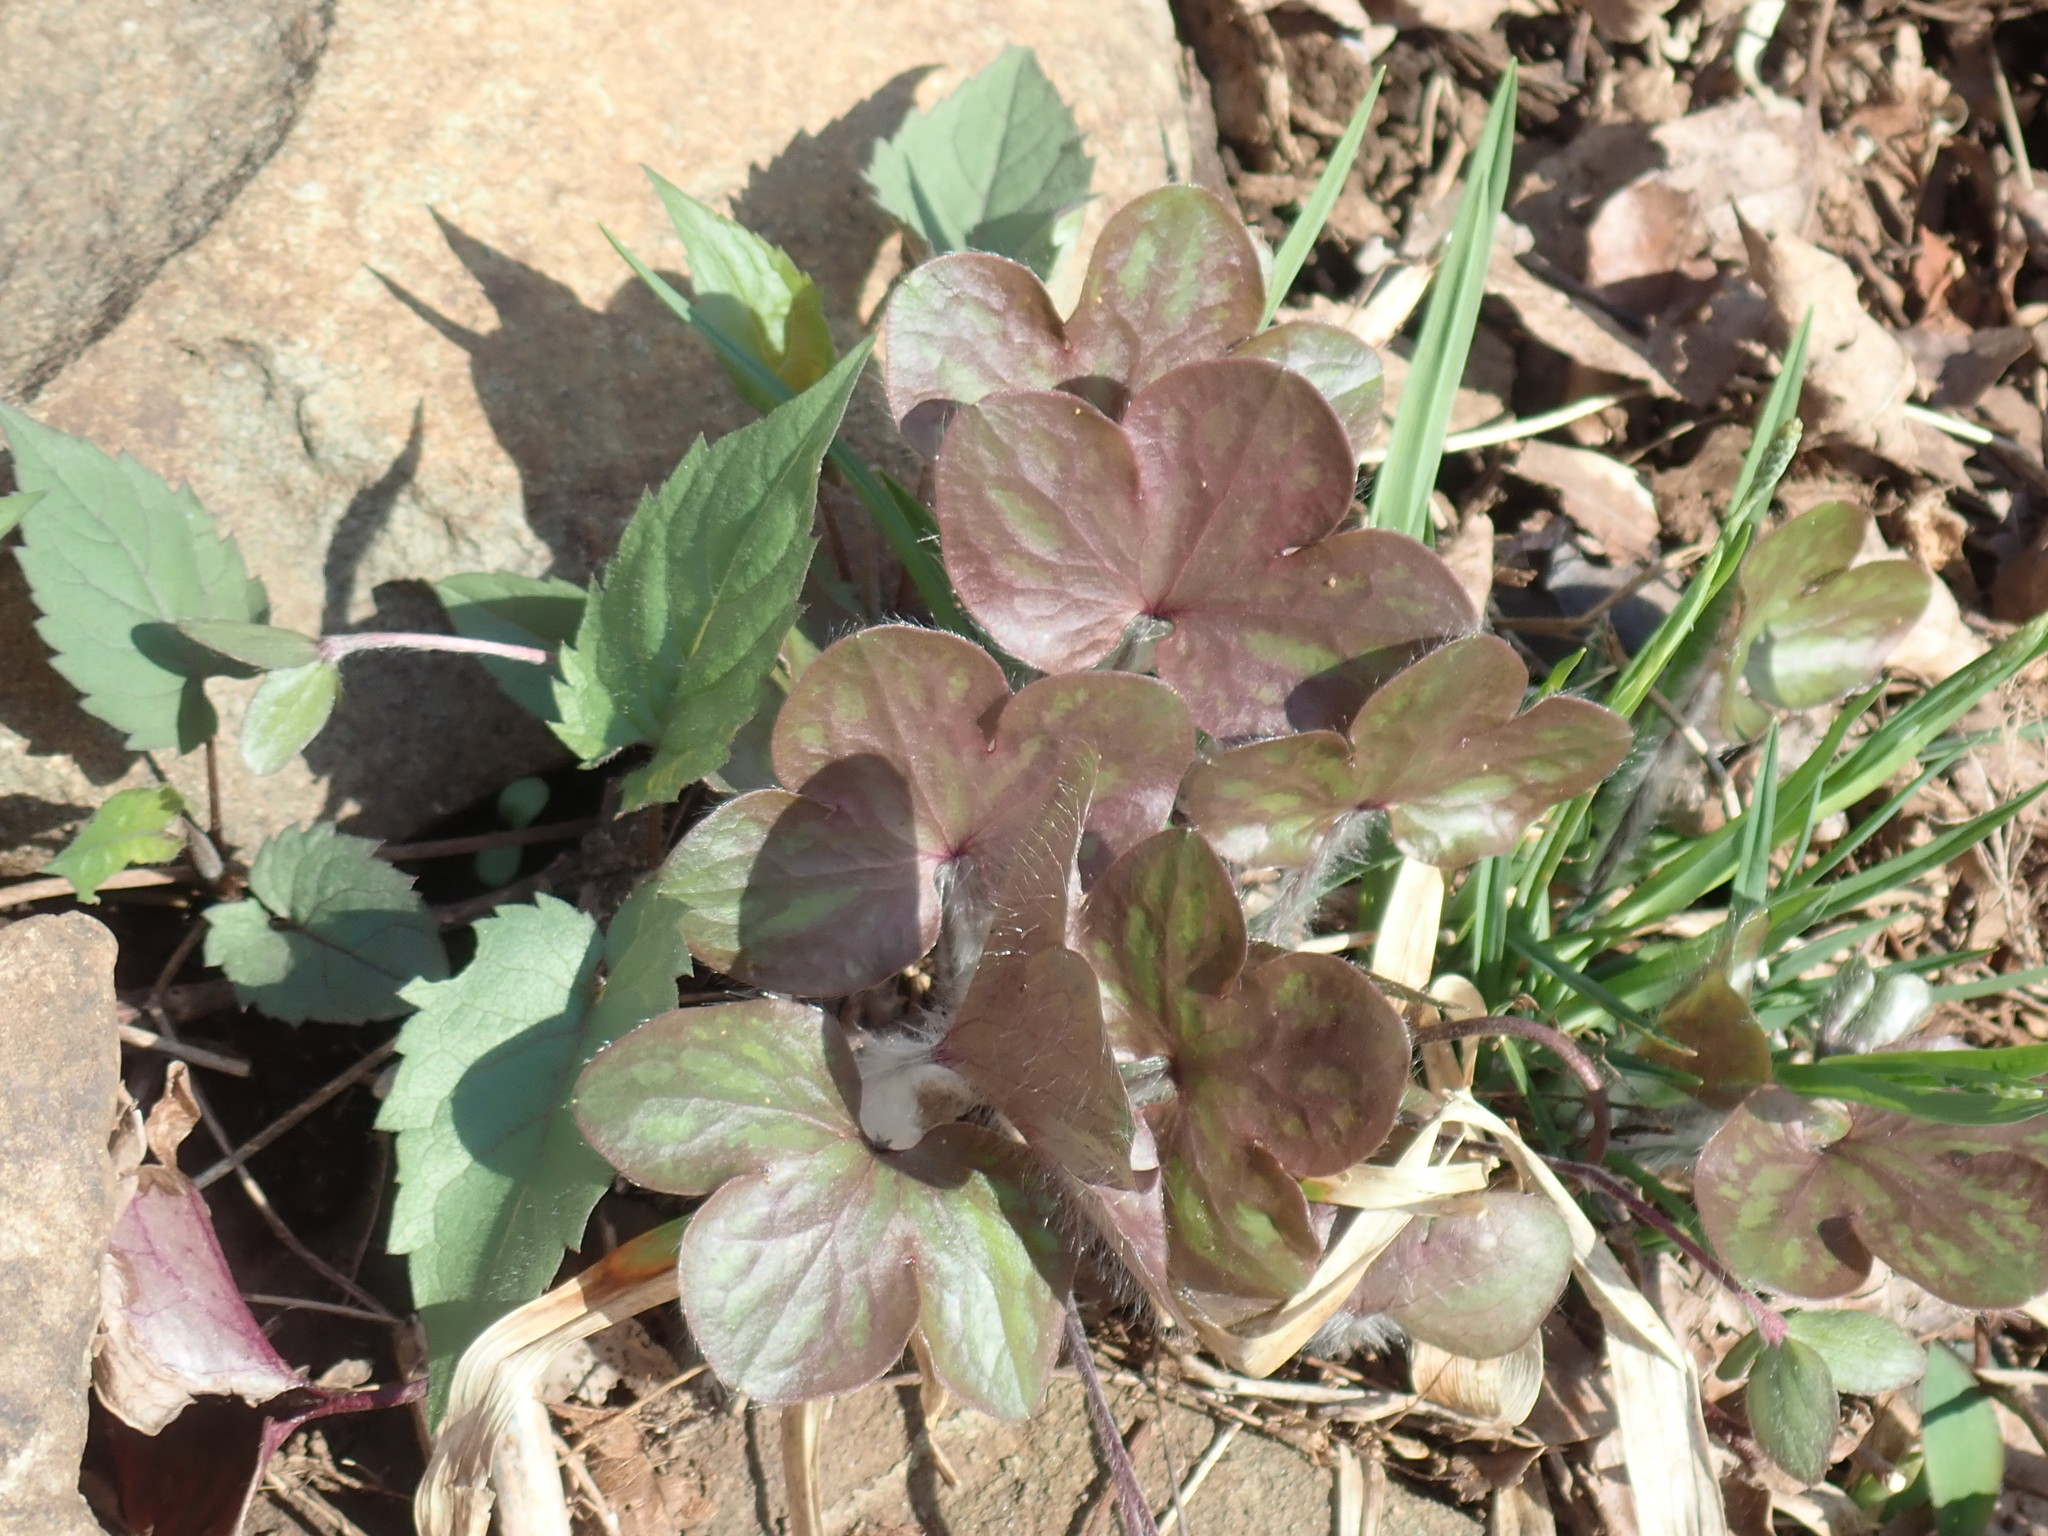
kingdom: Plantae
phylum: Tracheophyta
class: Magnoliopsida
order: Ranunculales
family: Ranunculaceae
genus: Hepatica
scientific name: Hepatica americana
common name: American hepatica
